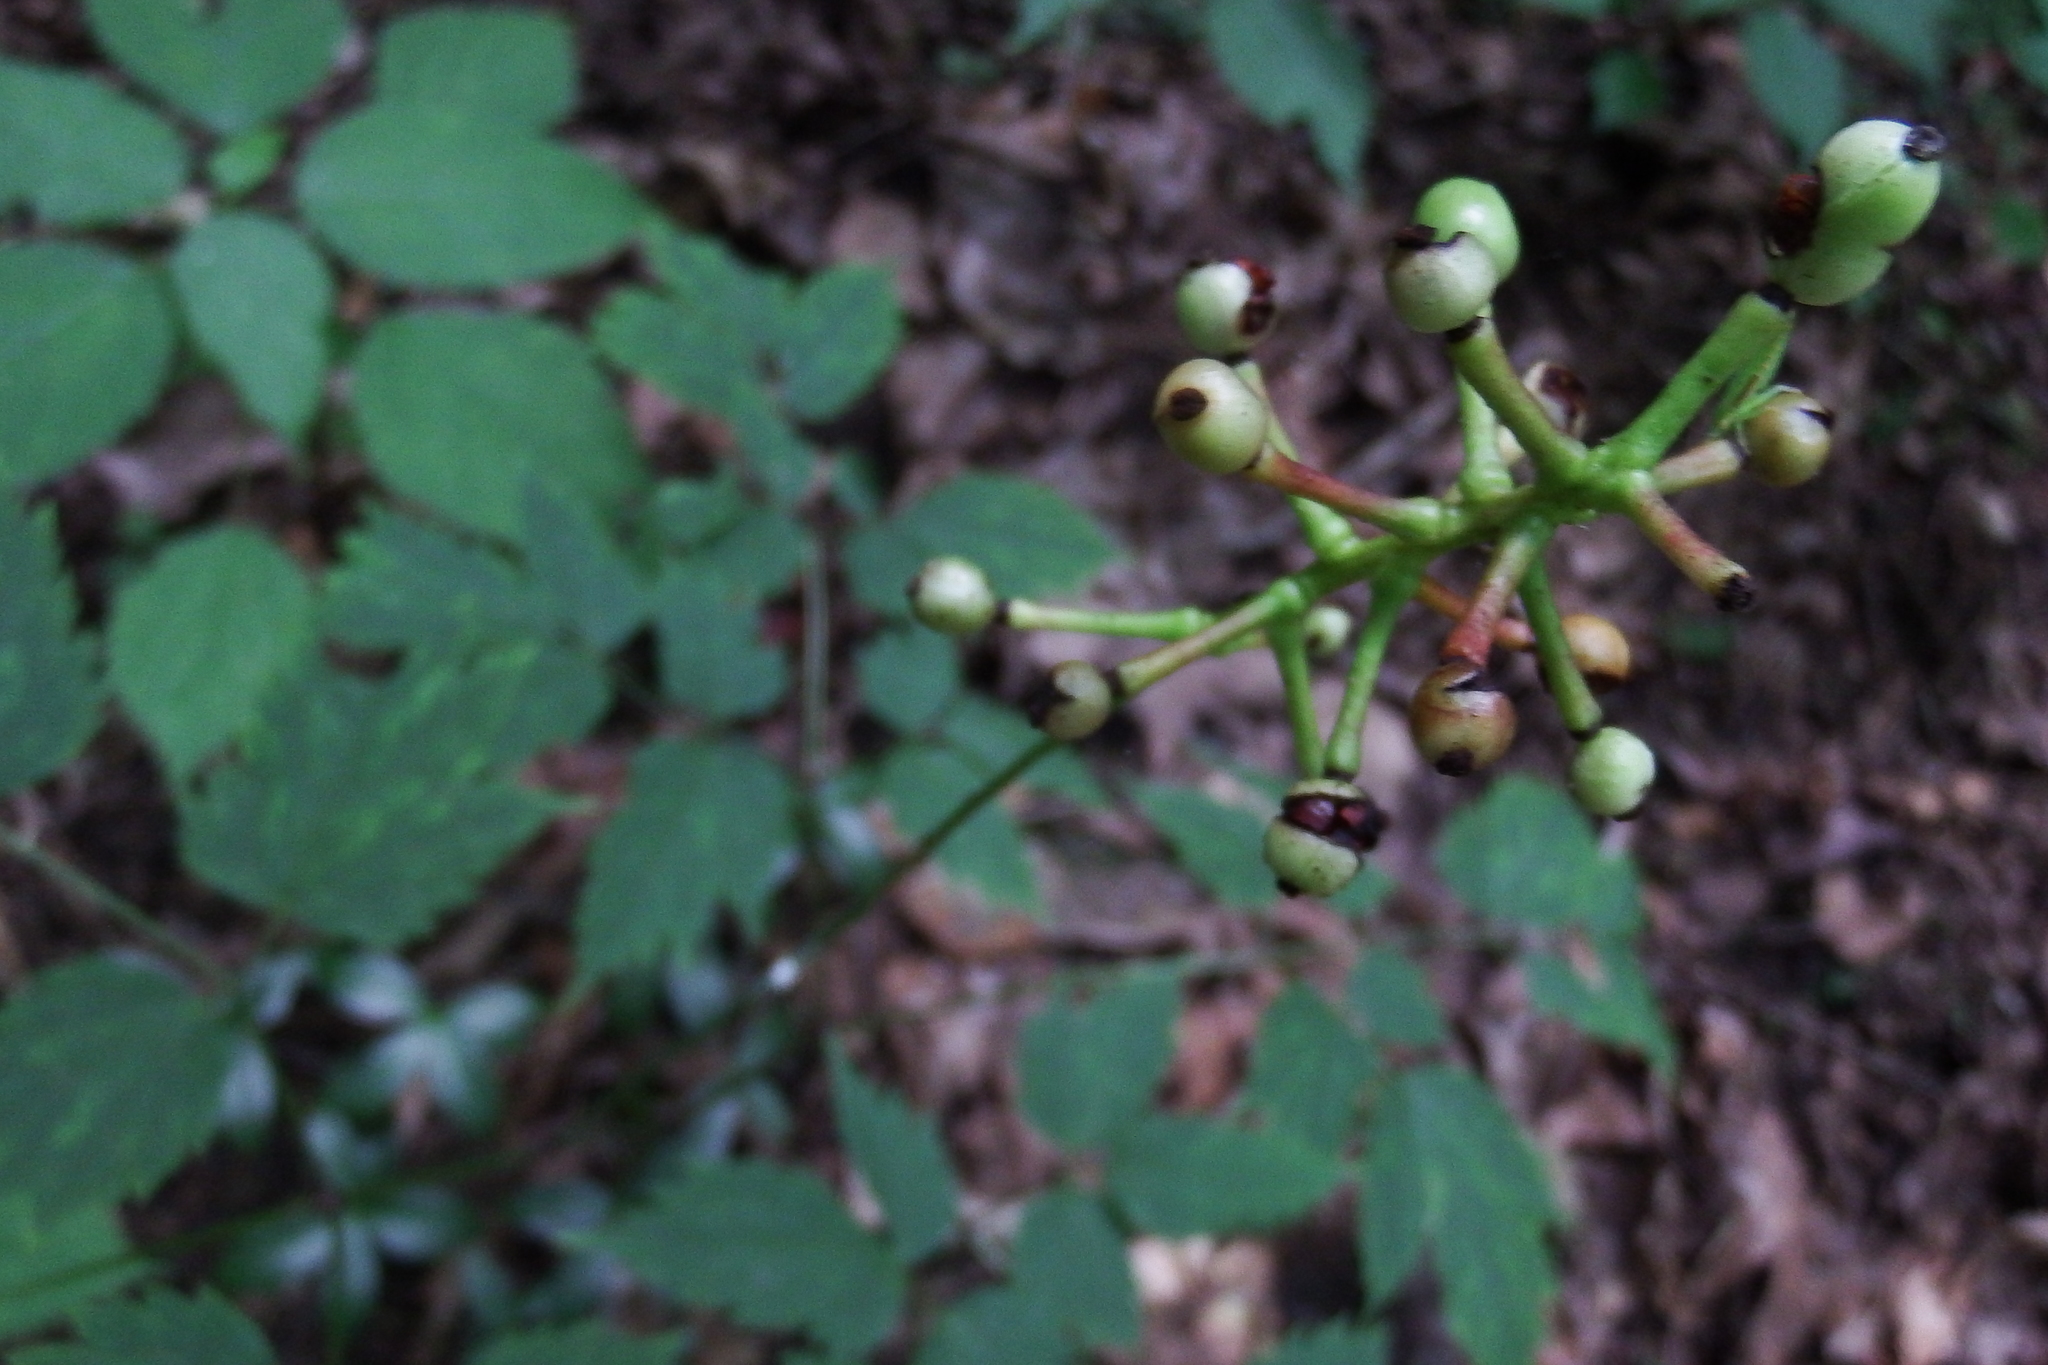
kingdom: Plantae
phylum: Tracheophyta
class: Magnoliopsida
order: Ranunculales
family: Ranunculaceae
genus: Actaea
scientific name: Actaea pachypoda
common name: Doll's-eyes
